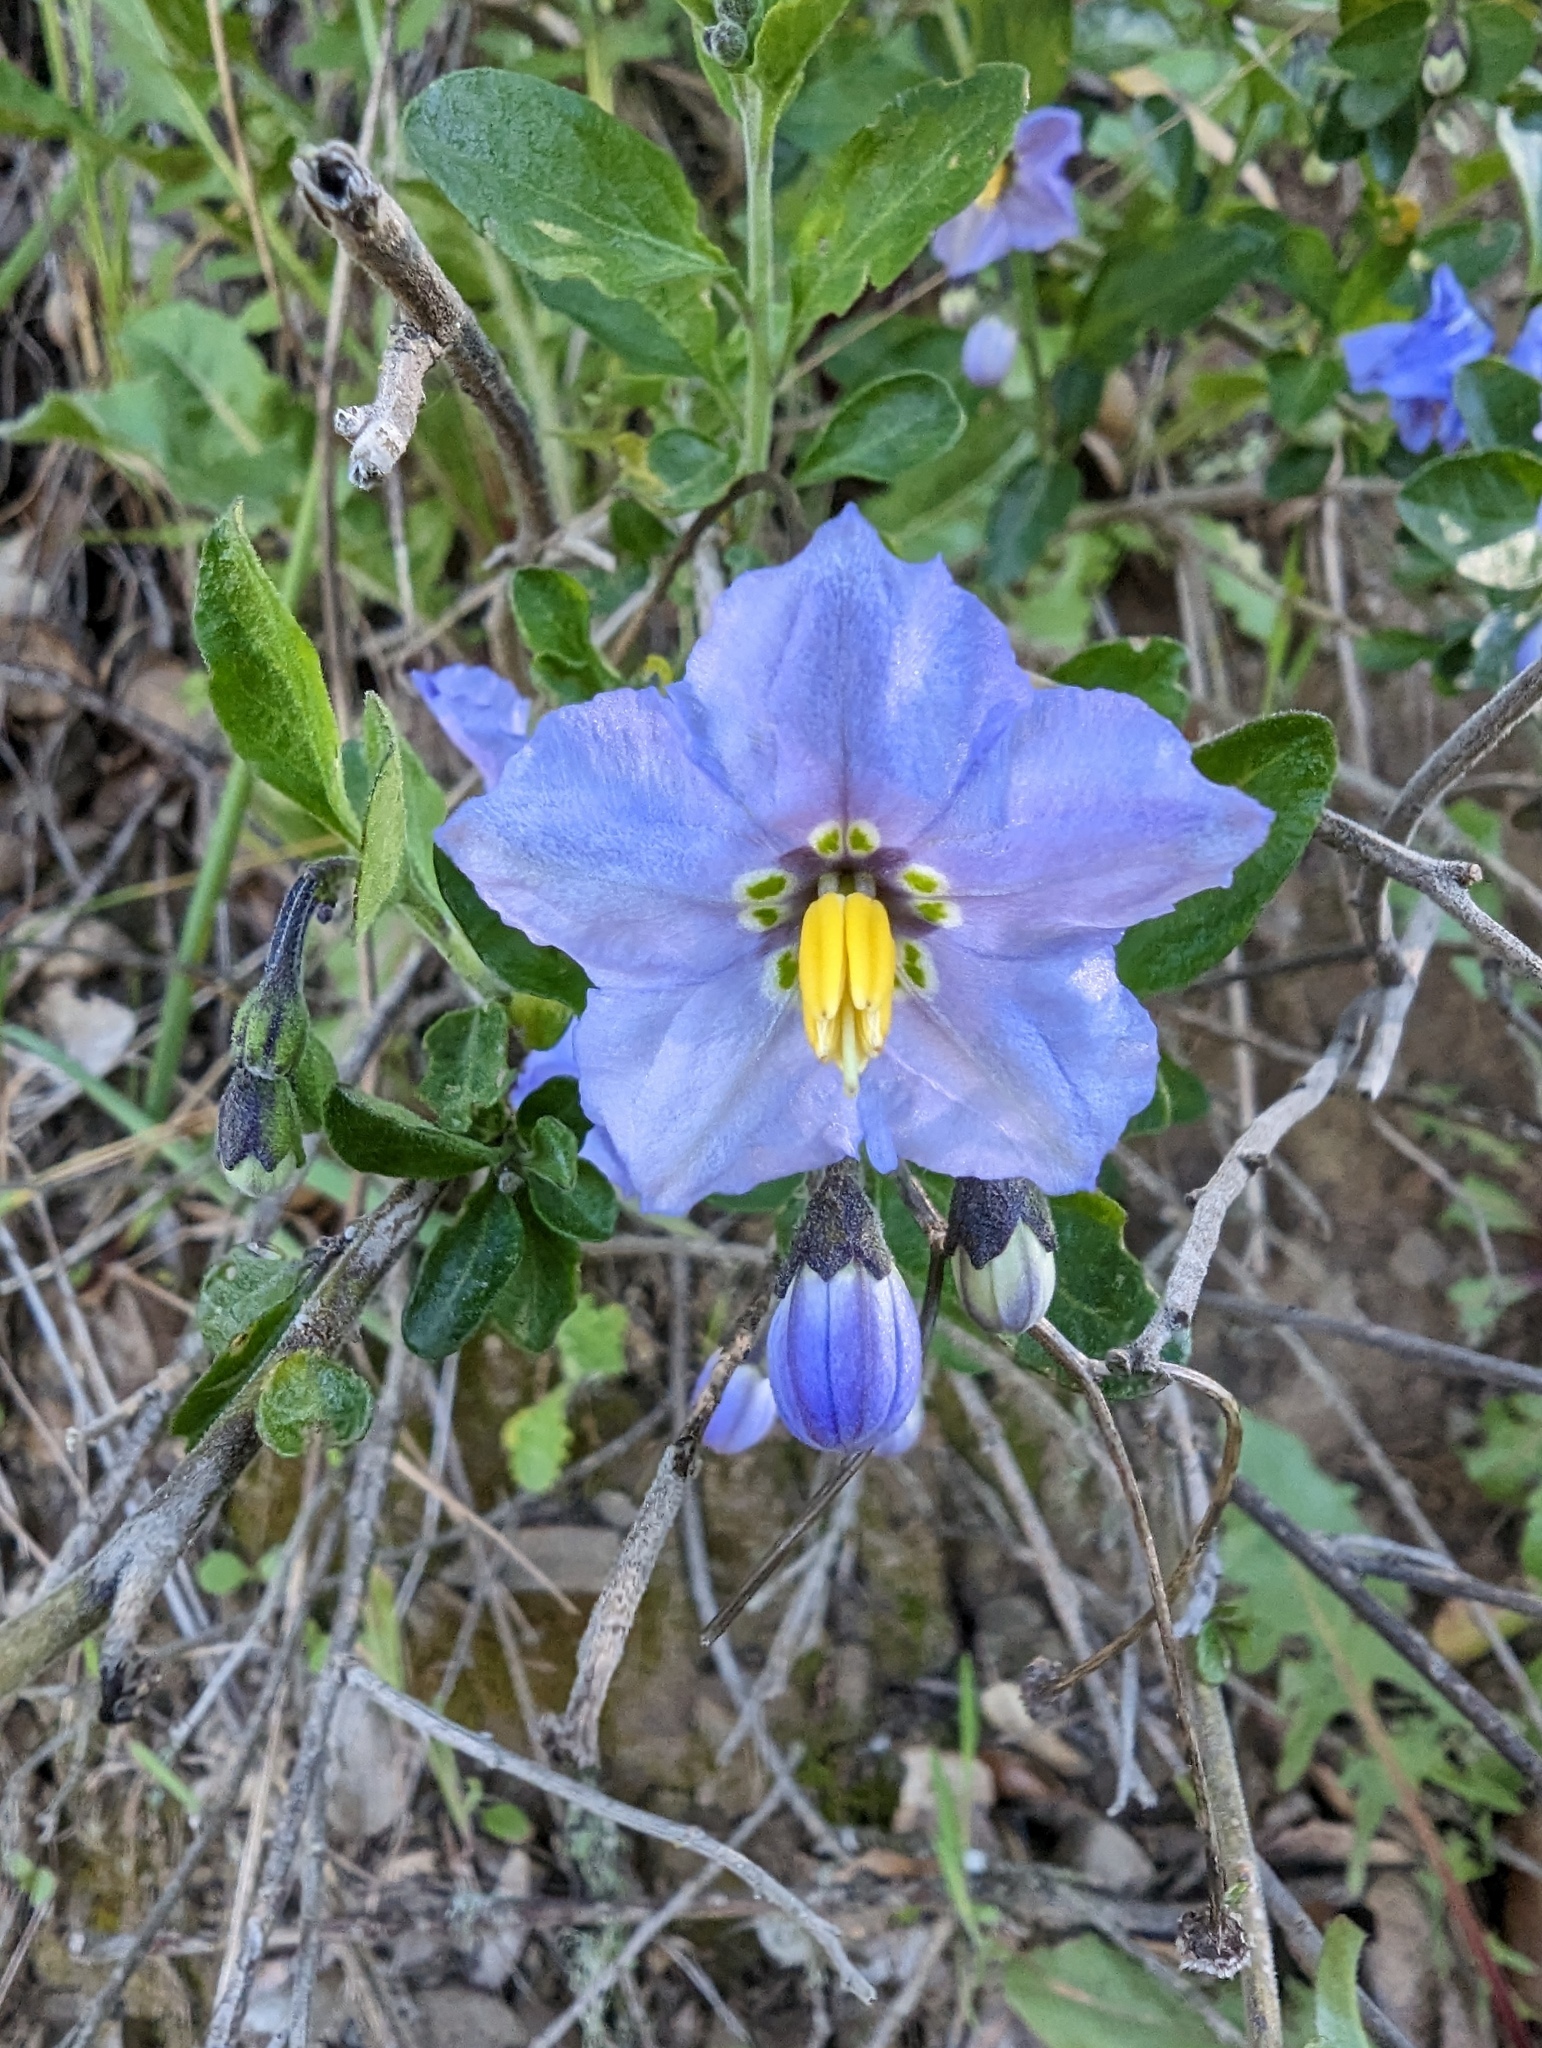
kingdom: Plantae
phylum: Tracheophyta
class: Magnoliopsida
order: Solanales
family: Solanaceae
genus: Solanum
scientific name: Solanum umbelliferum
